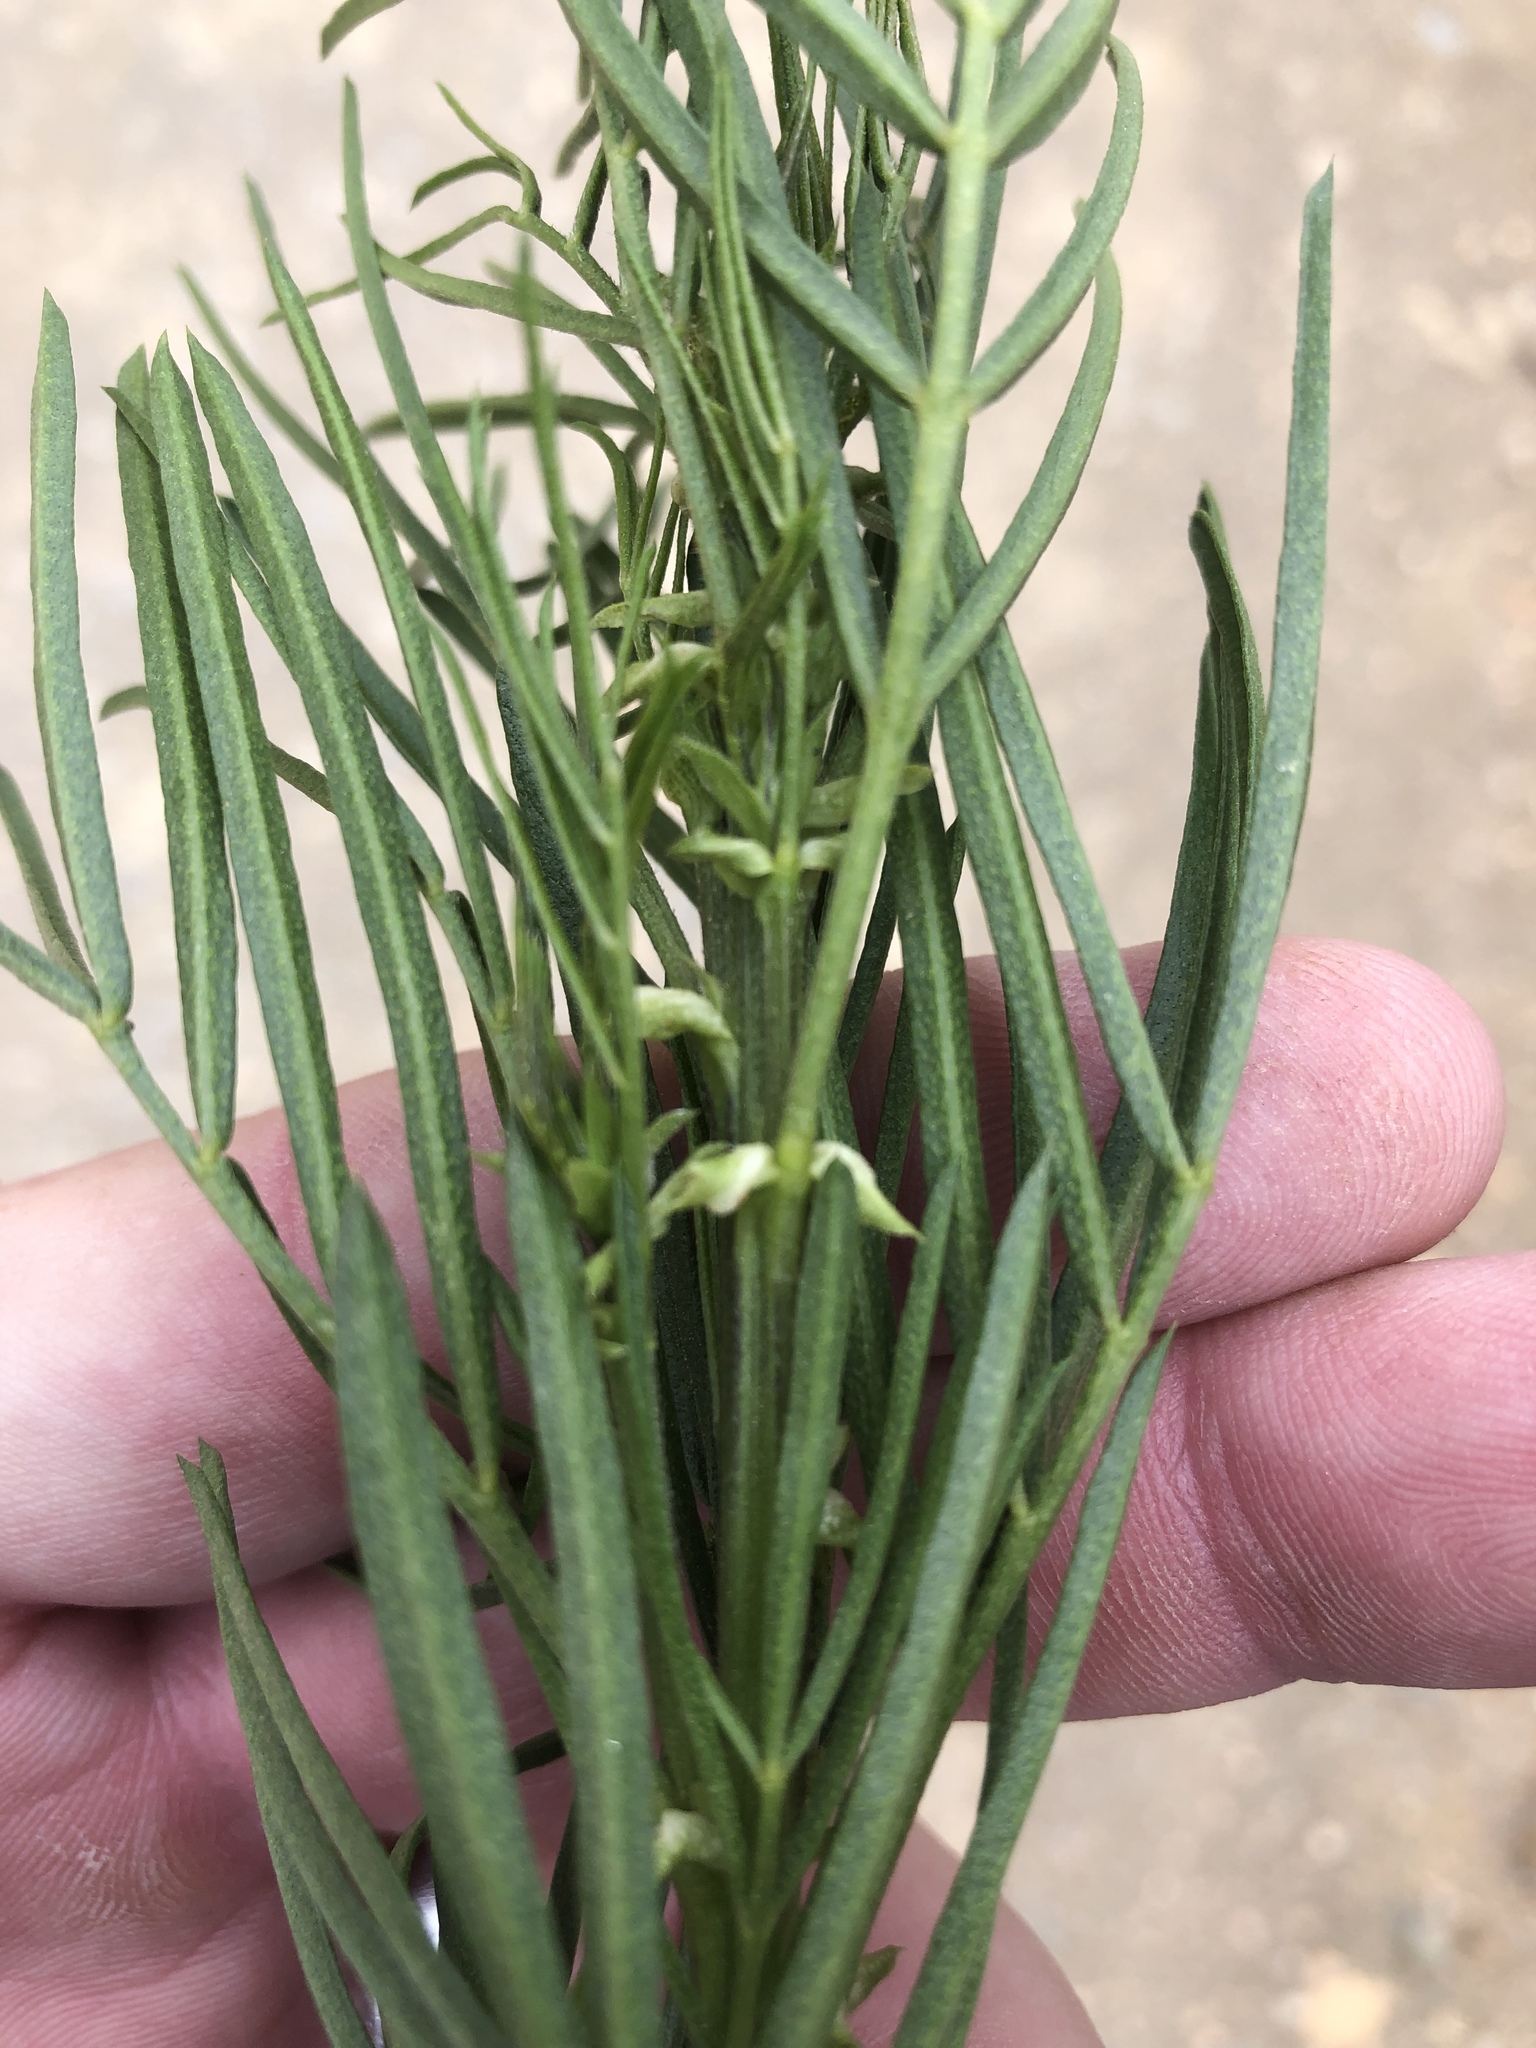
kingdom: Plantae
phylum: Tracheophyta
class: Magnoliopsida
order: Fabales
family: Fabaceae
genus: Psoralea
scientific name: Psoralea arborea
